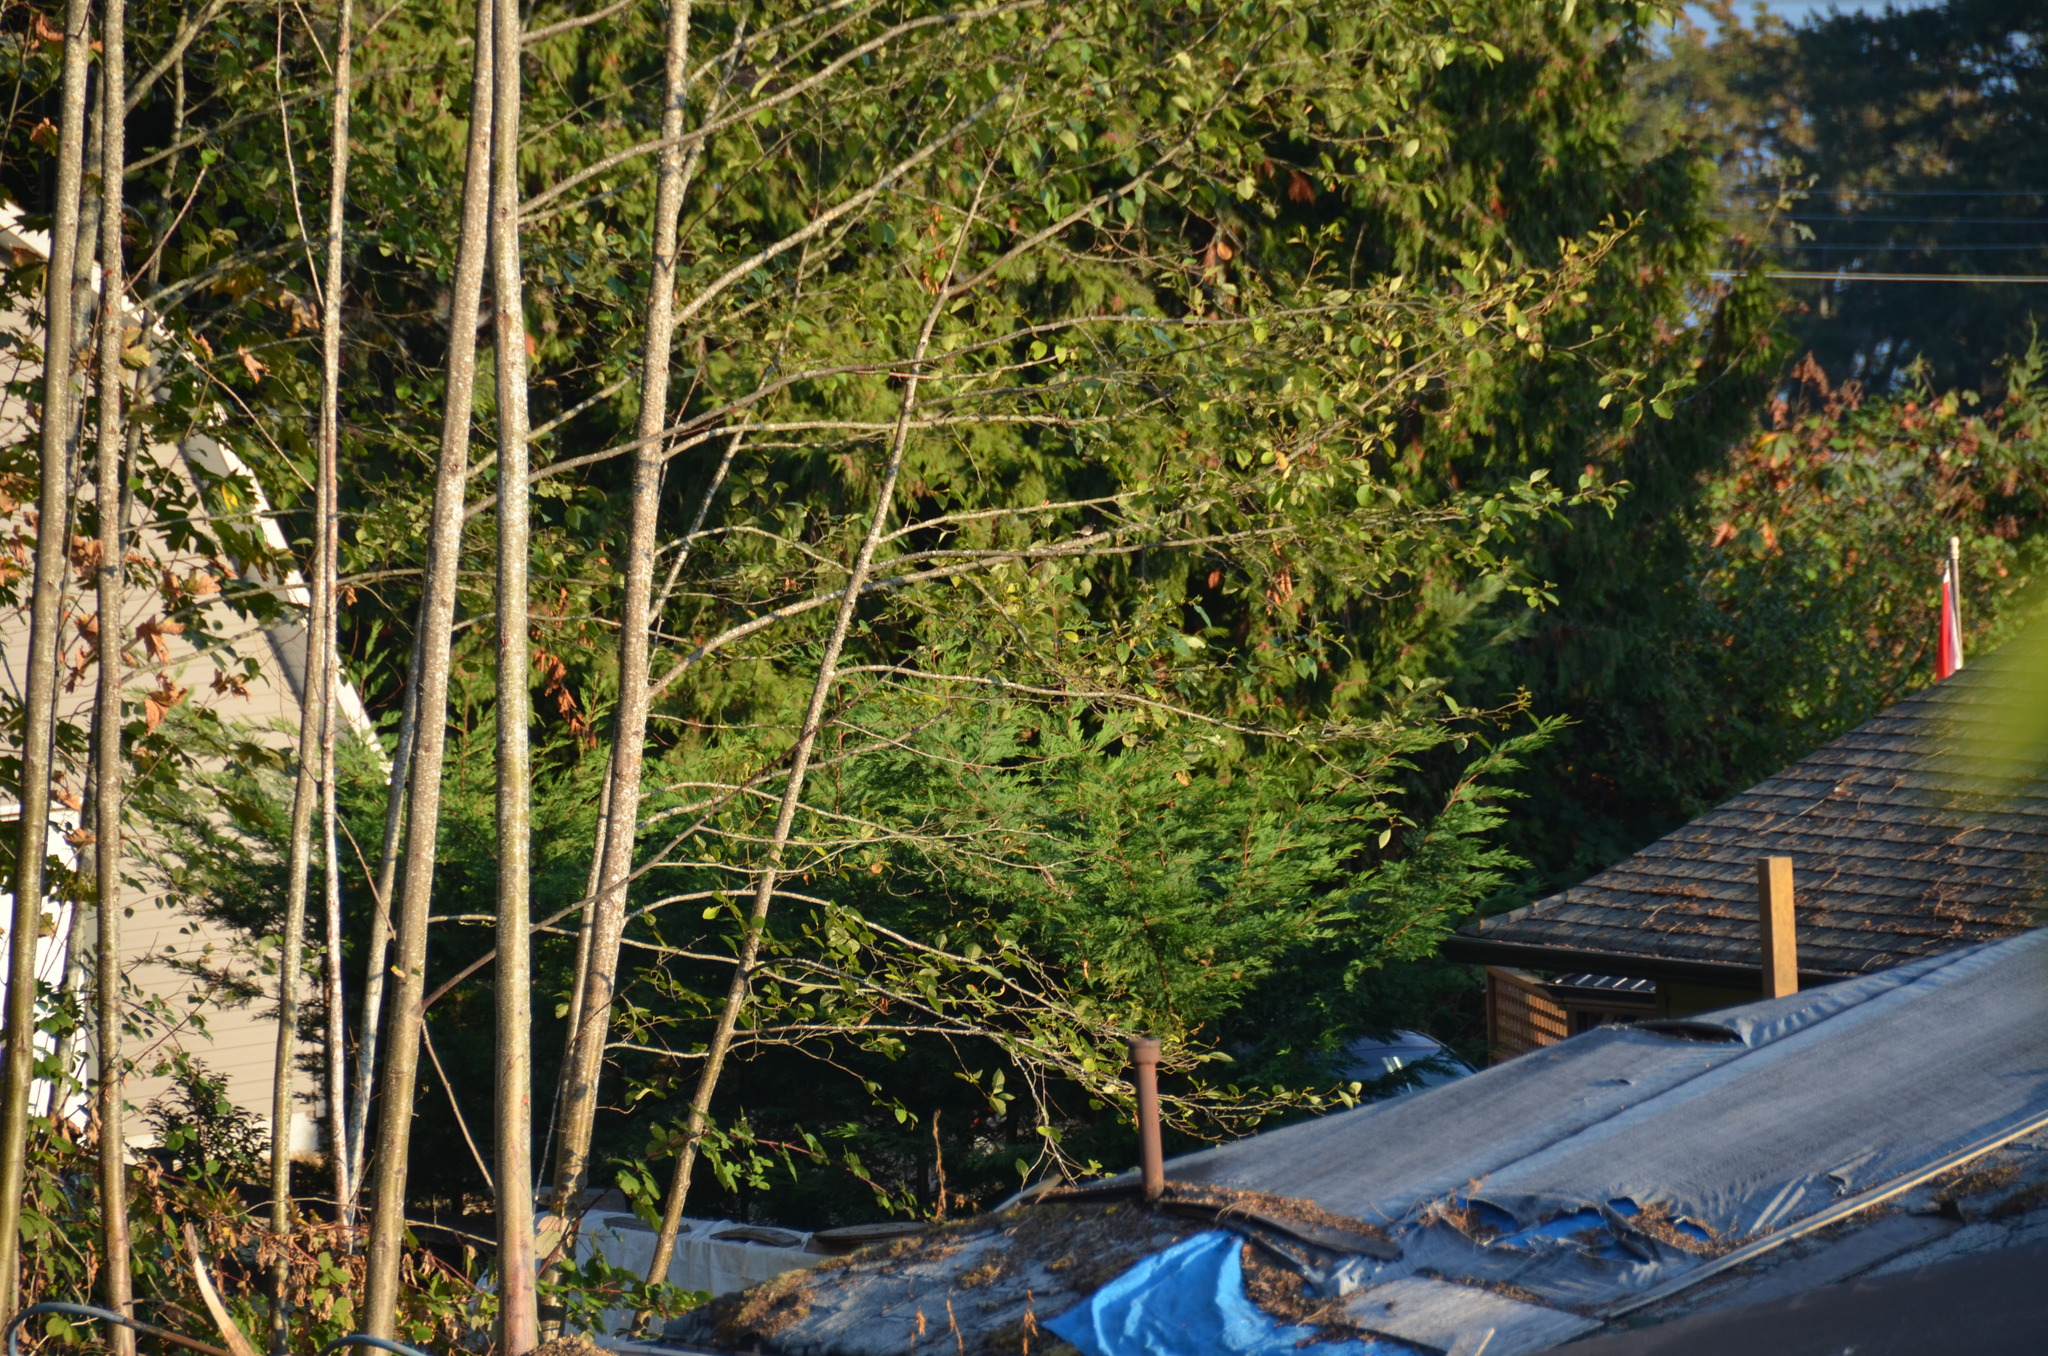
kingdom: Animalia
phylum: Chordata
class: Aves
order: Passeriformes
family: Passerellidae
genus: Junco
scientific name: Junco hyemalis
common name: Dark-eyed junco
